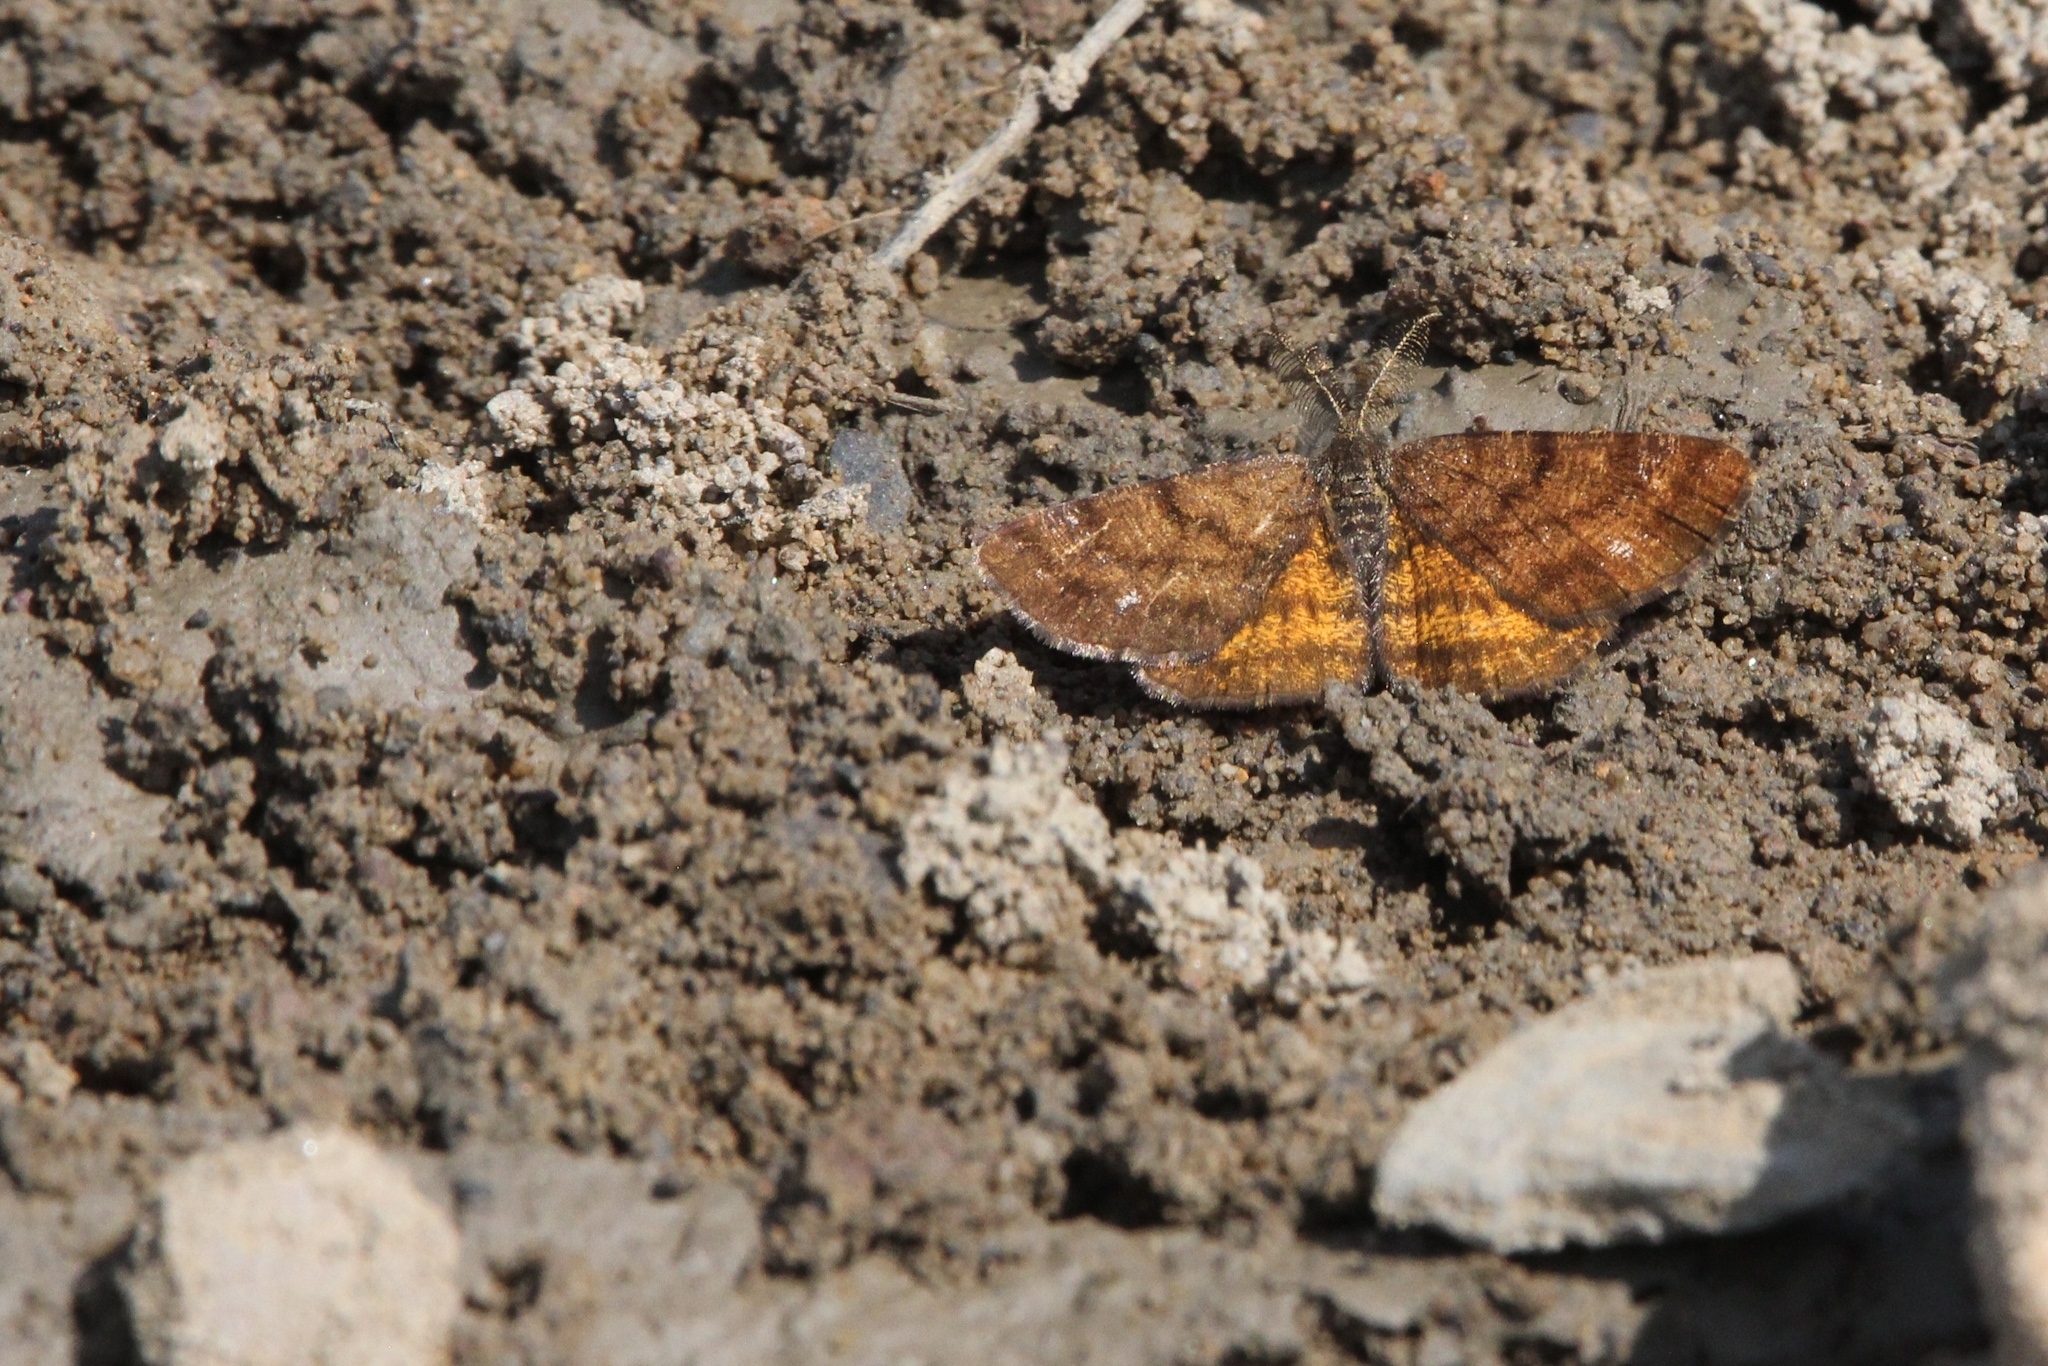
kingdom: Animalia
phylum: Arthropoda
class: Insecta
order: Lepidoptera
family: Geometridae
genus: Ematurga
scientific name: Ematurga amitaria
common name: Cranberry spanworm moth
